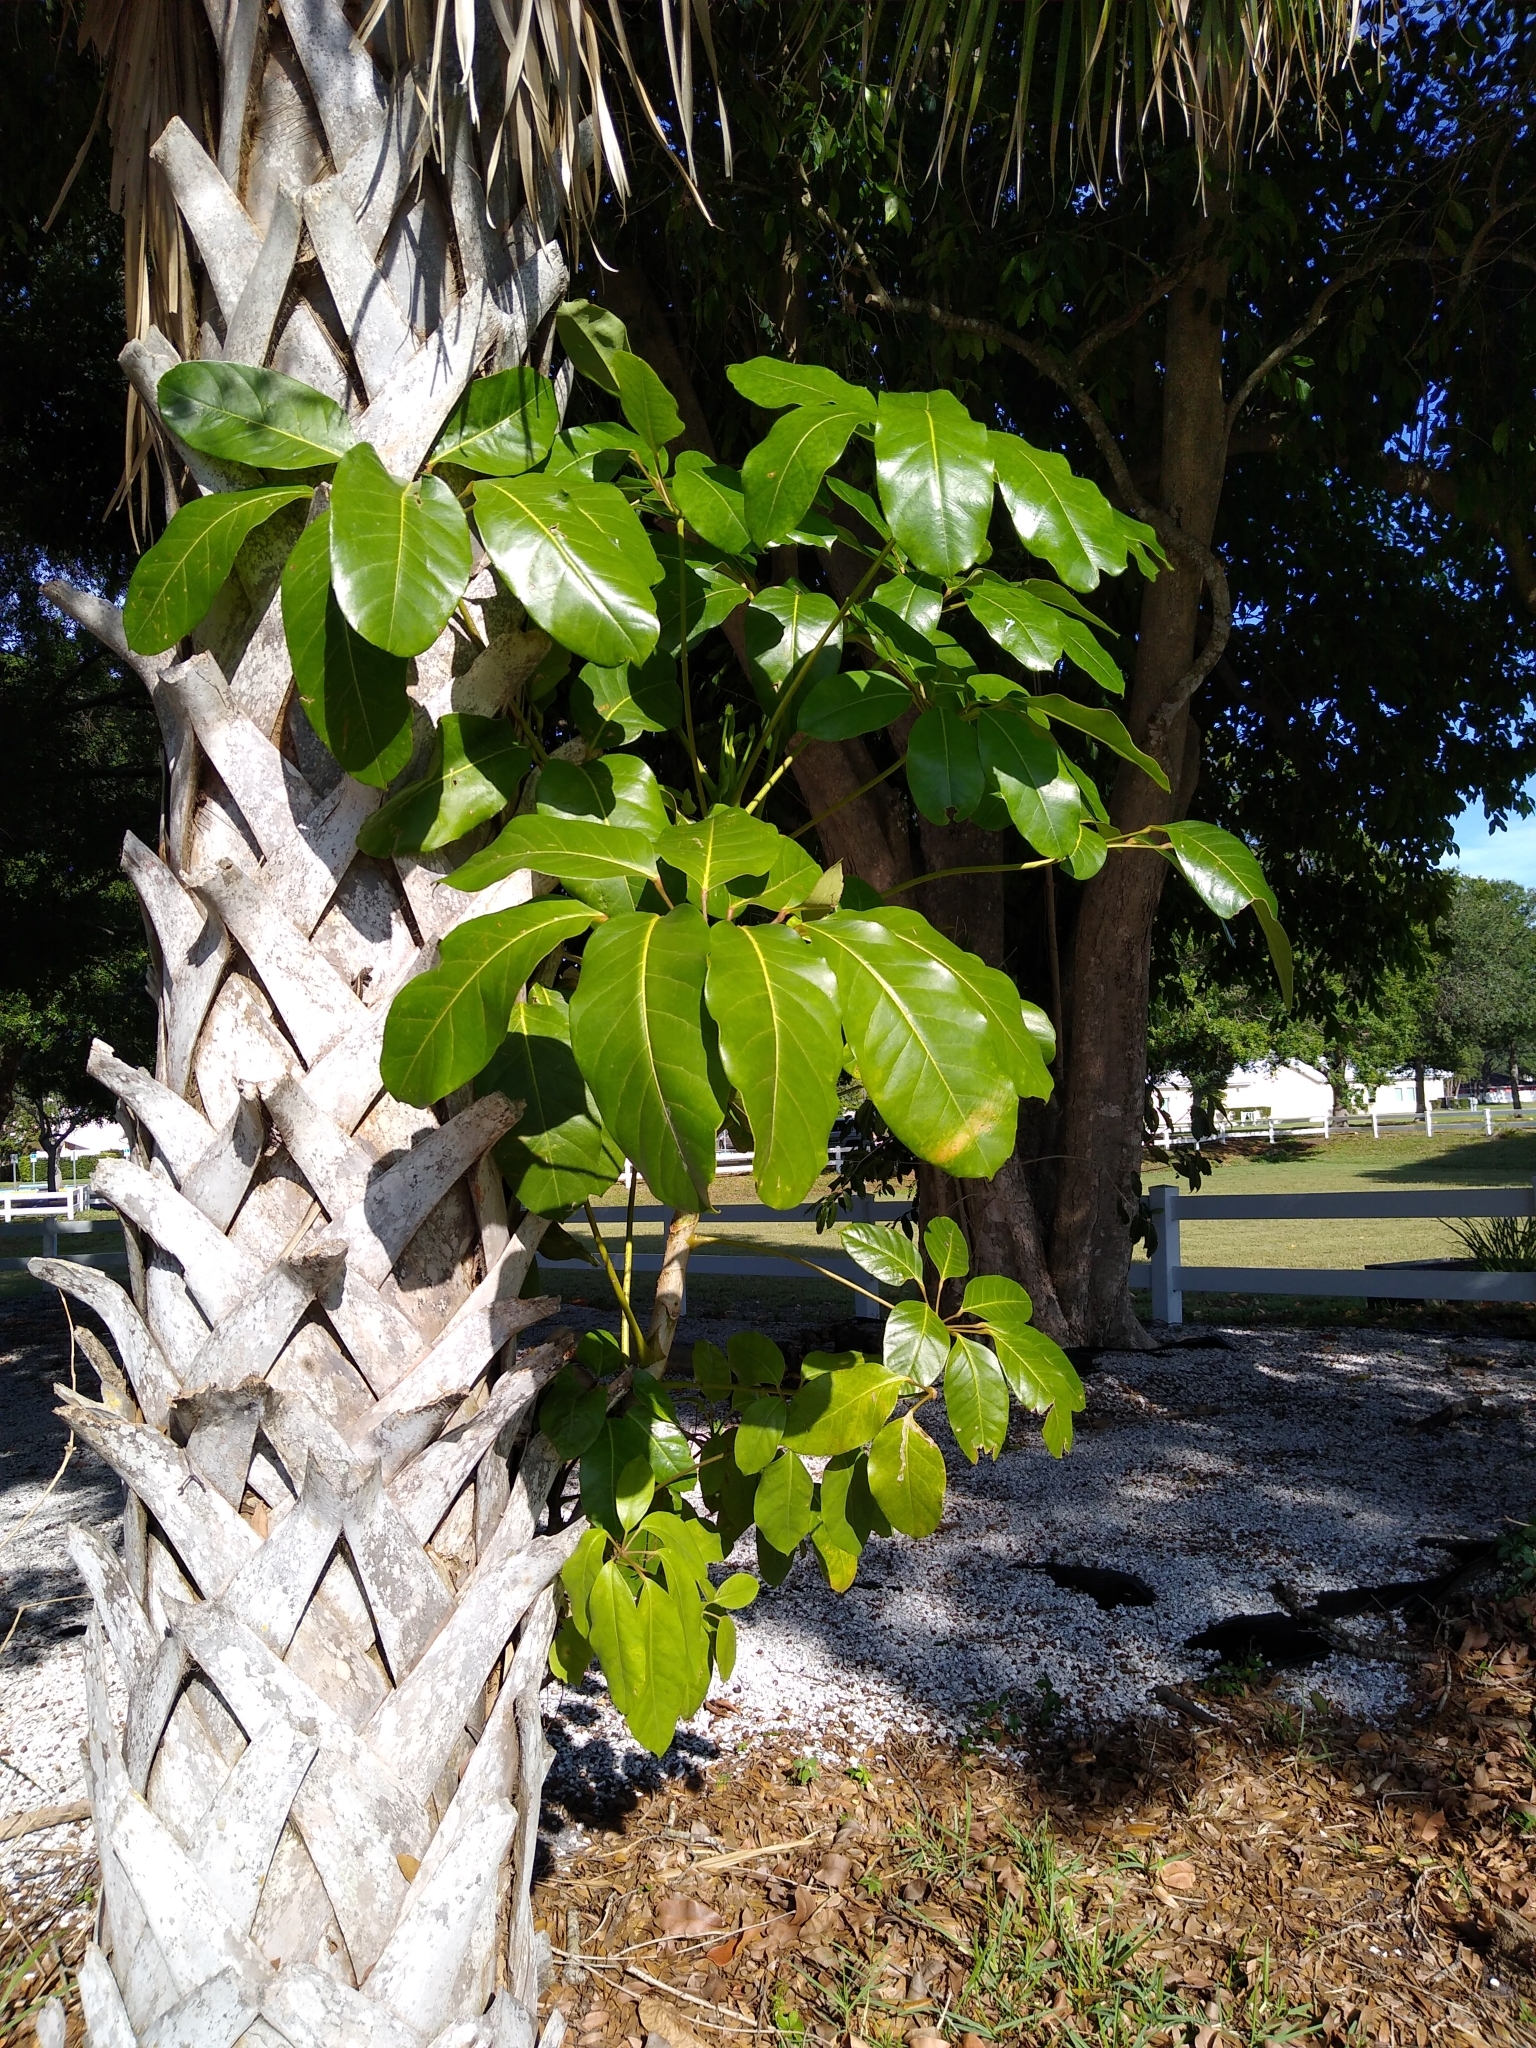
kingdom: Plantae
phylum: Tracheophyta
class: Magnoliopsida
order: Apiales
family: Araliaceae
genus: Heptapleurum
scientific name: Heptapleurum actinophyllum
